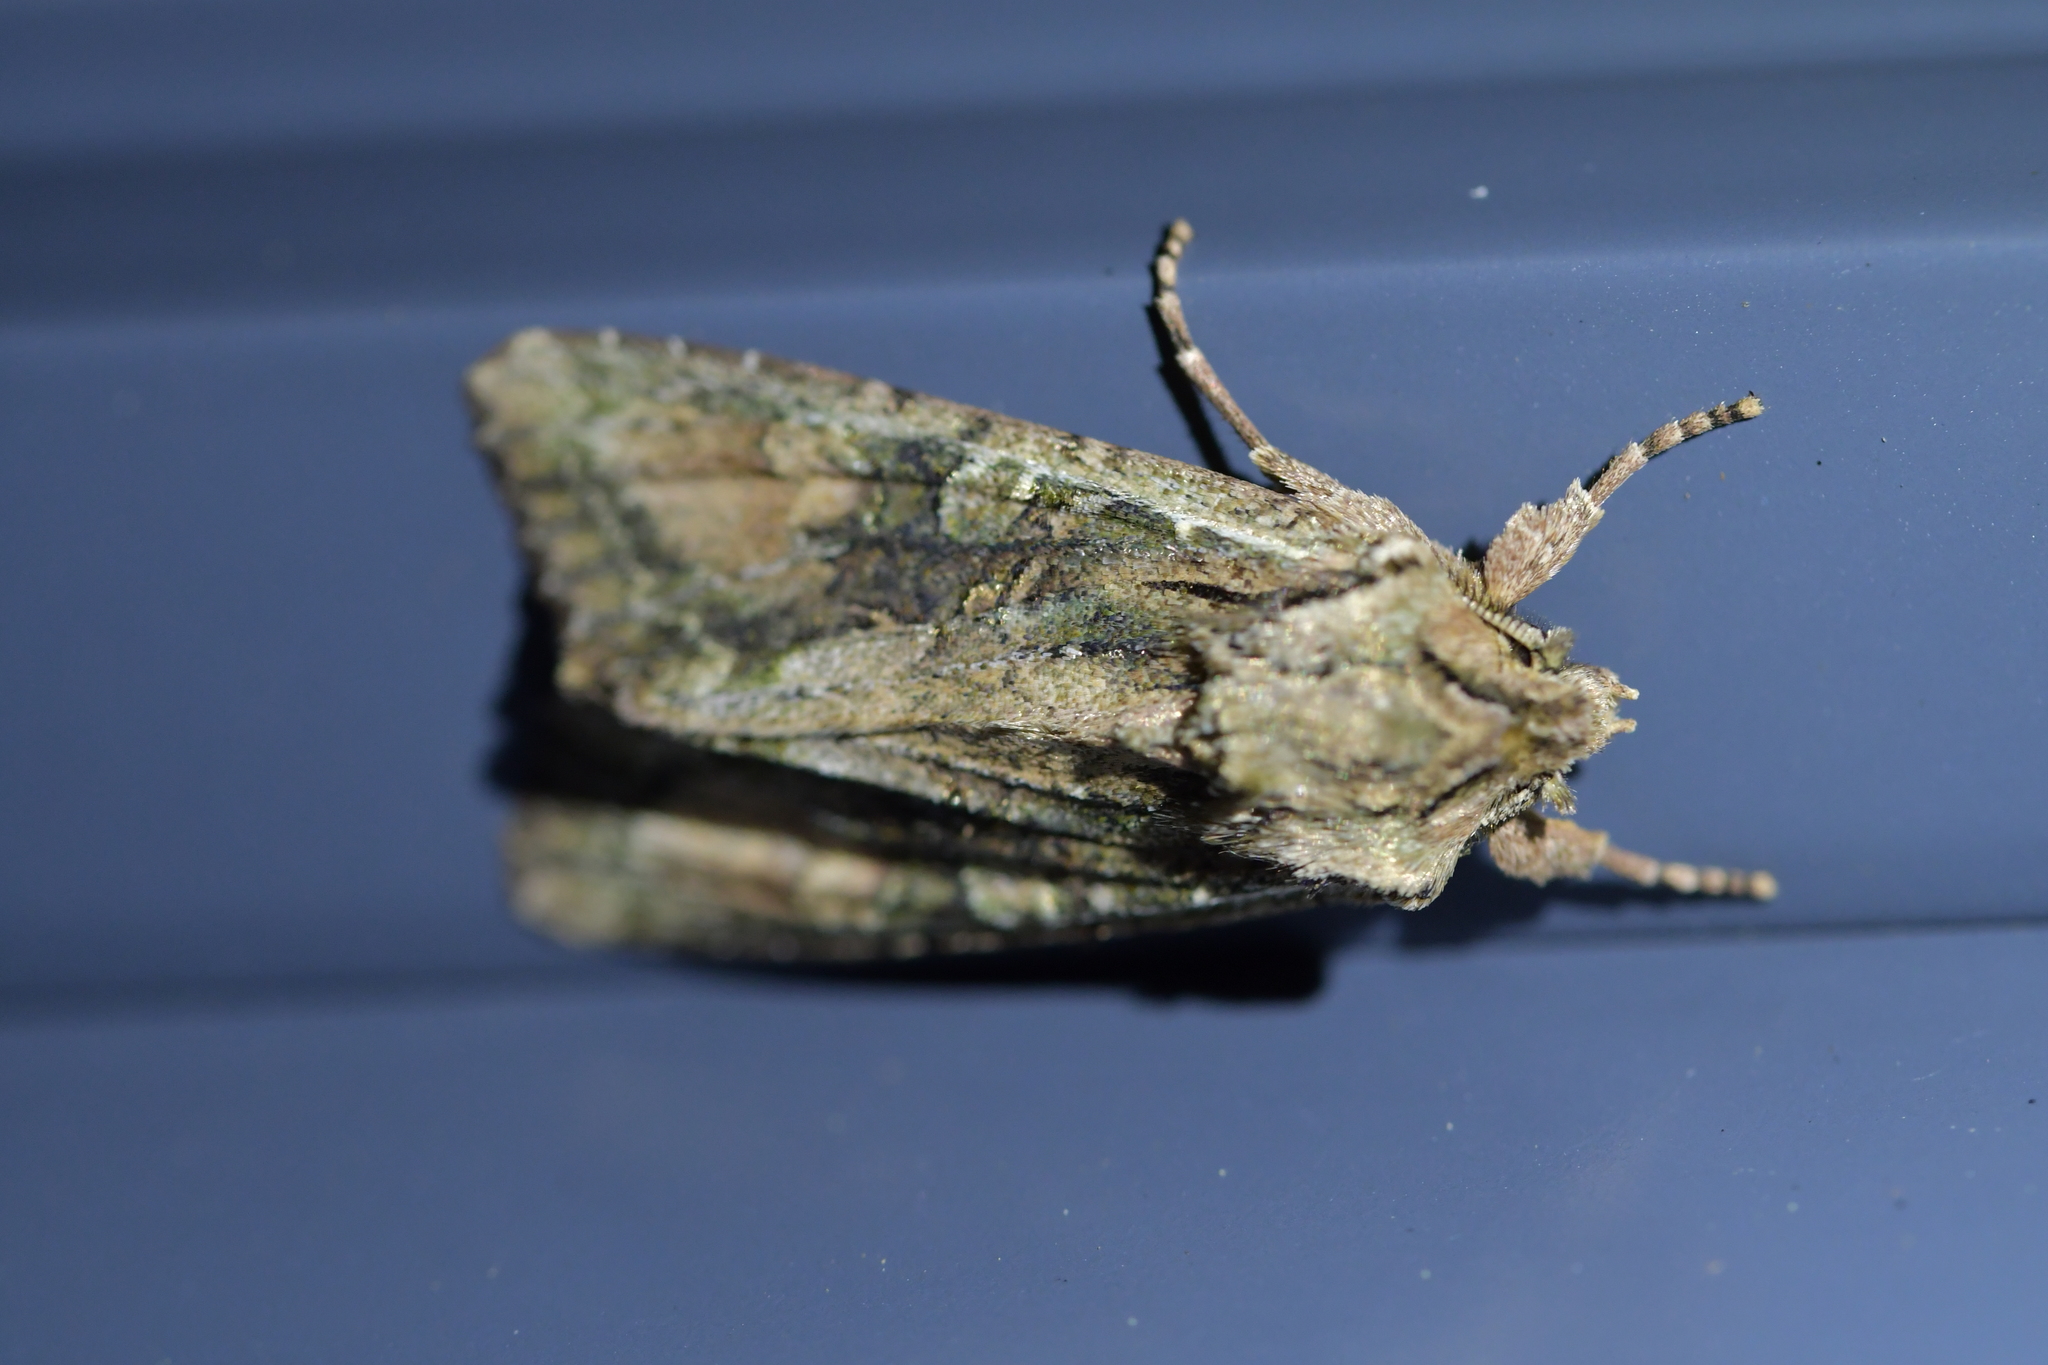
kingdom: Animalia
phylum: Arthropoda
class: Insecta
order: Lepidoptera
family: Noctuidae
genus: Ichneutica
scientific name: Ichneutica mutans
